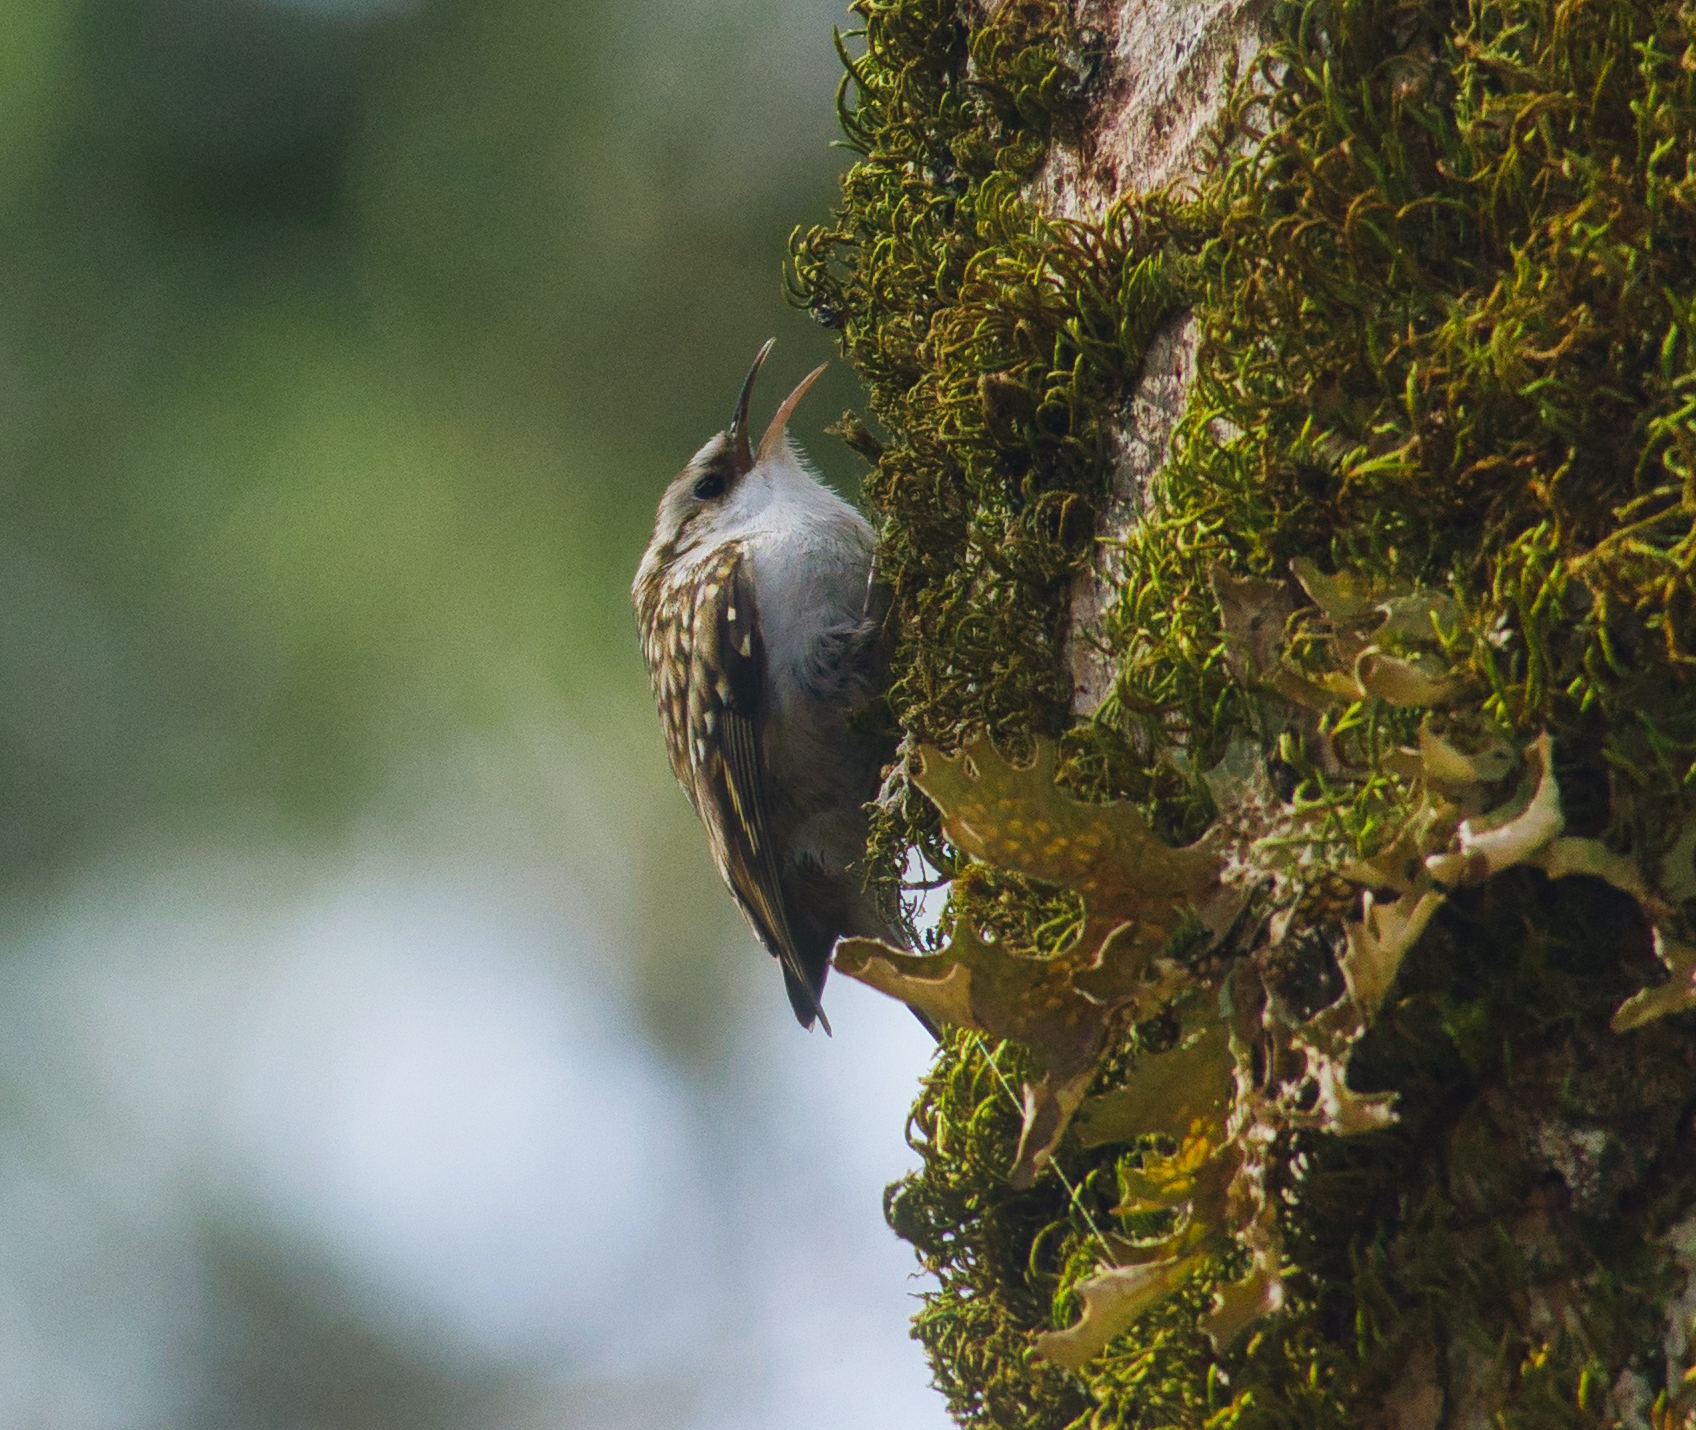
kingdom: Animalia
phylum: Chordata
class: Aves
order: Passeriformes
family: Certhiidae
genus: Certhia
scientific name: Certhia familiaris
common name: Eurasian treecreeper
